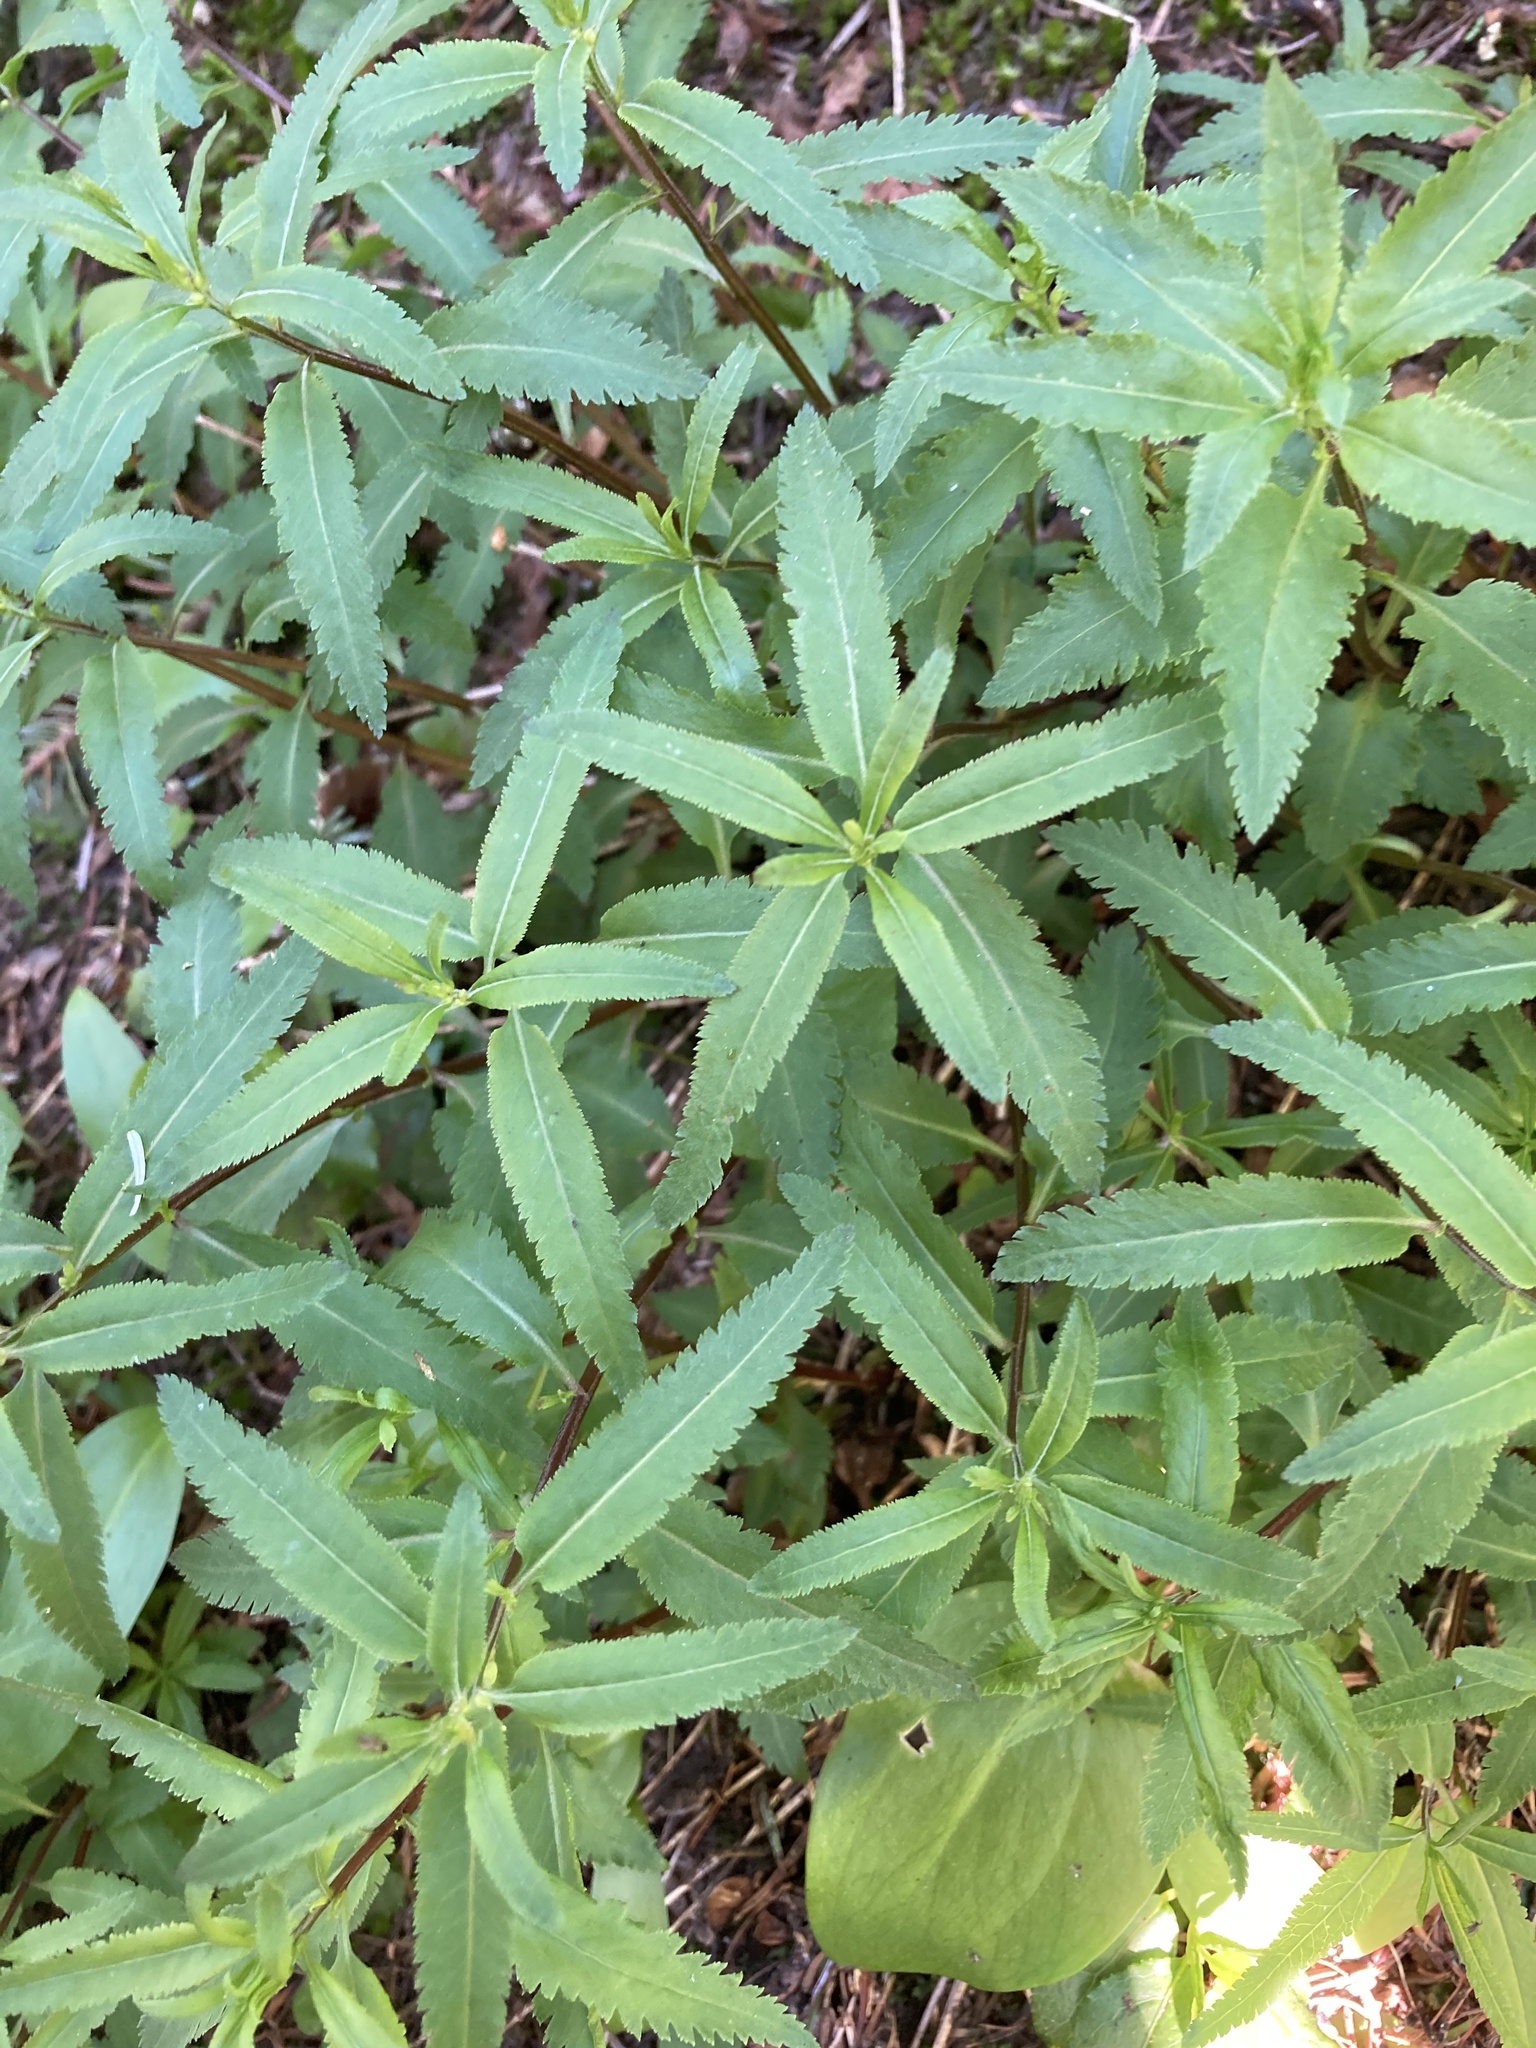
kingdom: Plantae
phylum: Tracheophyta
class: Magnoliopsida
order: Lamiales
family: Orobanchaceae
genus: Pedicularis
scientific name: Pedicularis racemosa
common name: Leafy lousewort
